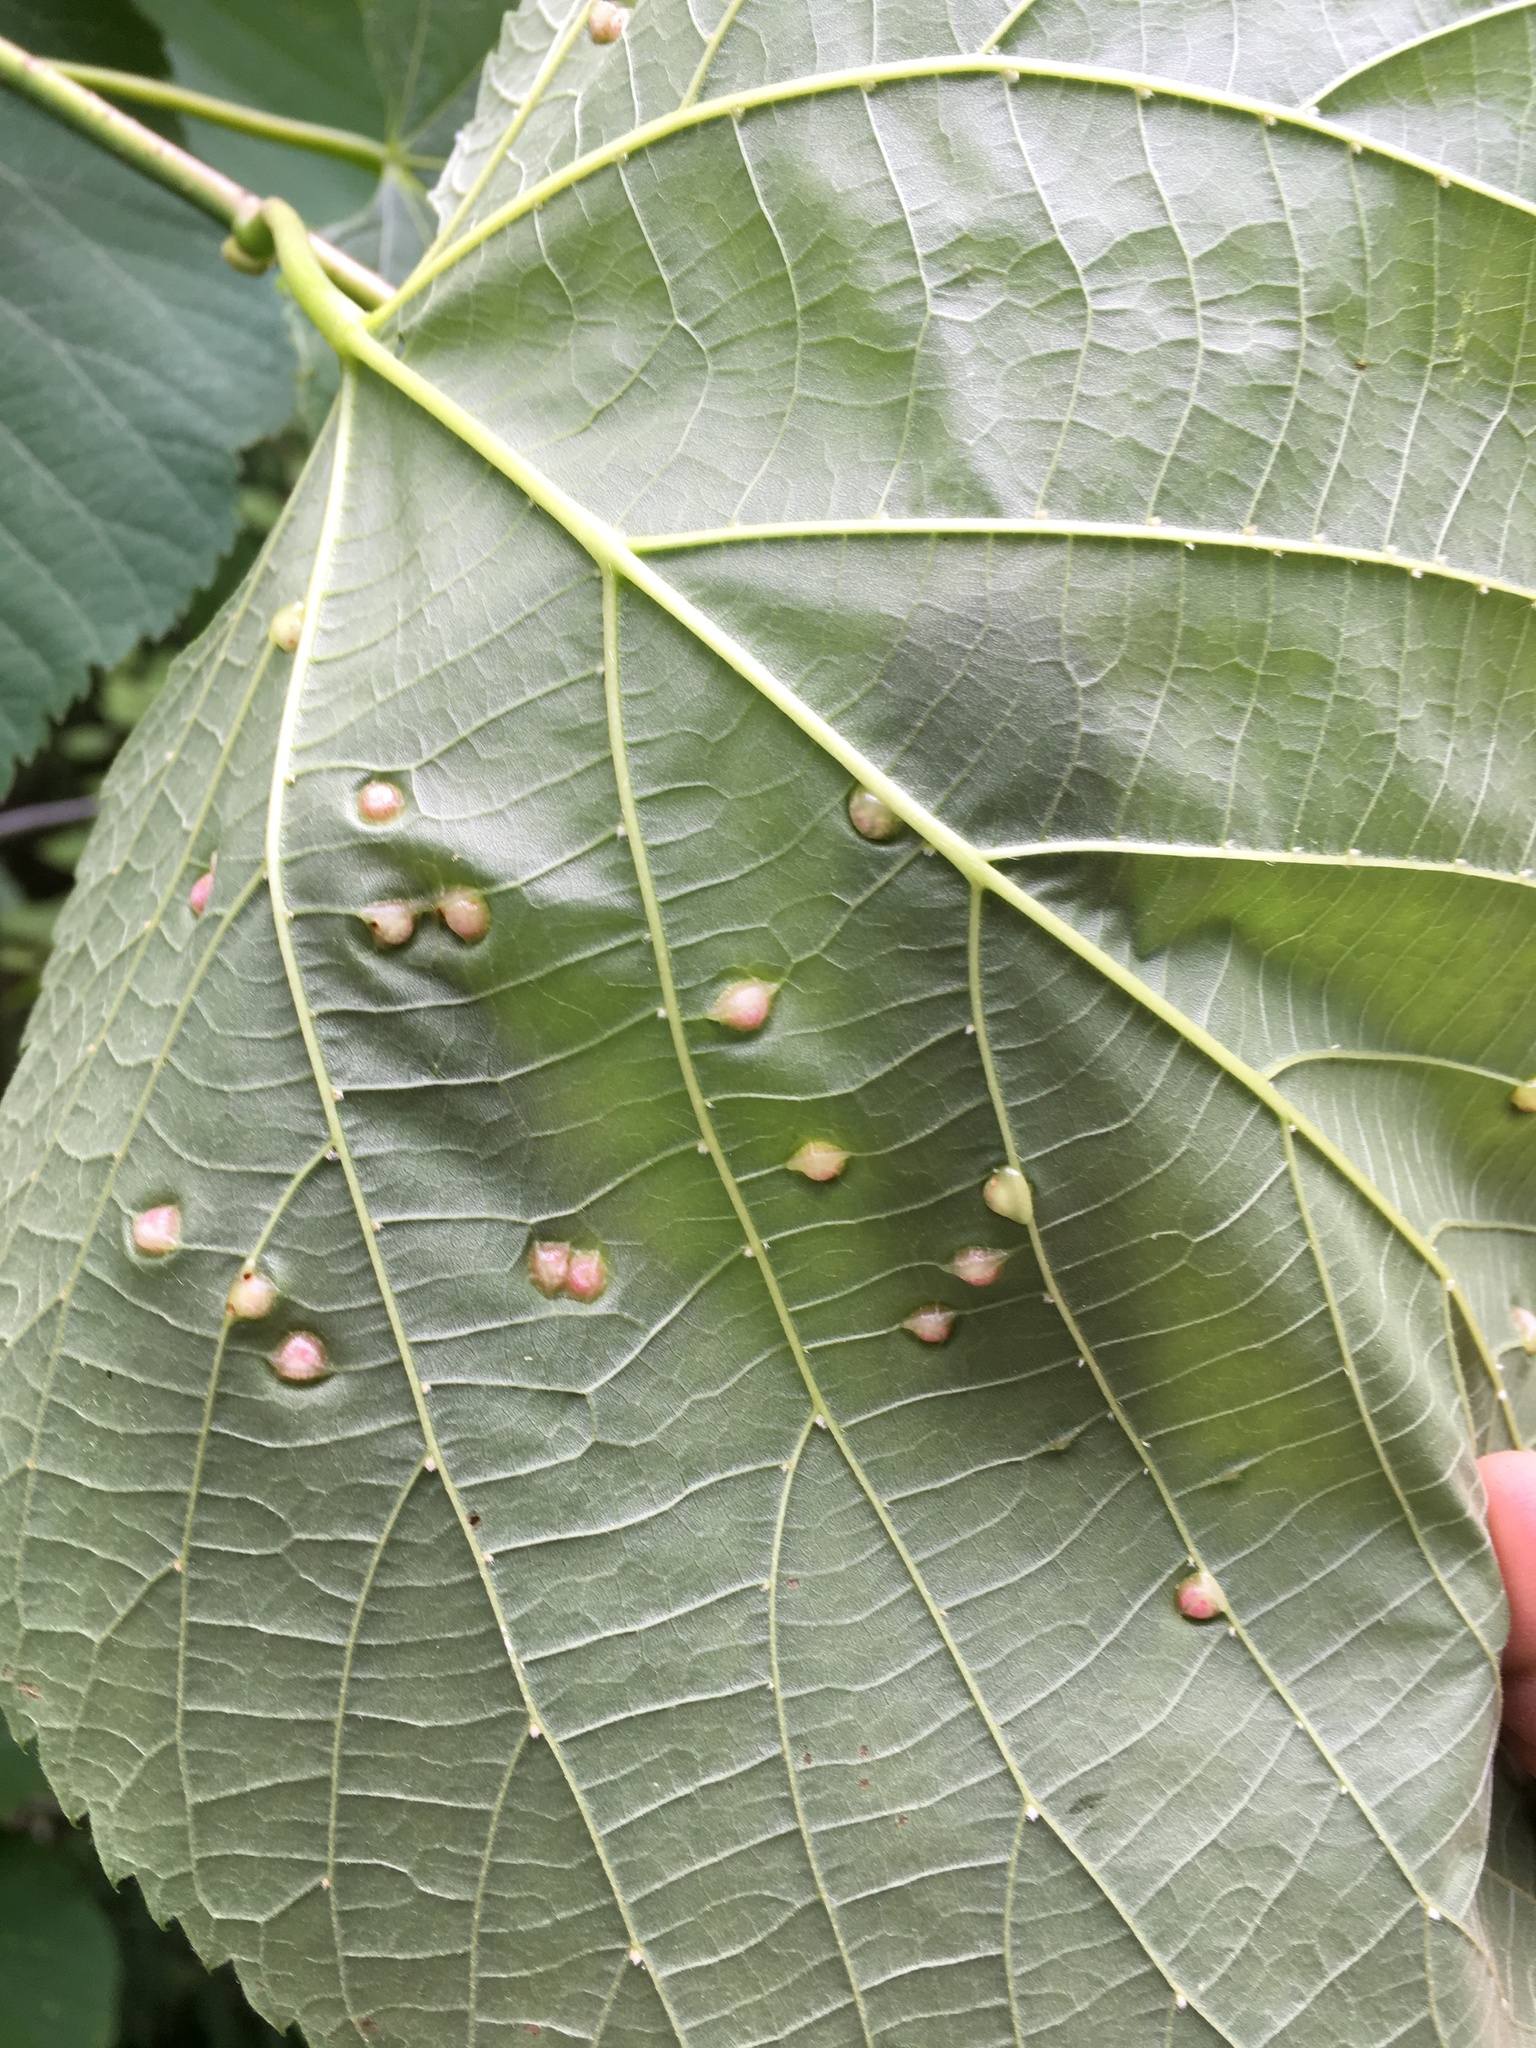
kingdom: Animalia
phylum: Arthropoda
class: Insecta
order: Diptera
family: Cecidomyiidae
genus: Contarinia
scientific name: Contarinia verrucicola
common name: Linden wart gall midge
